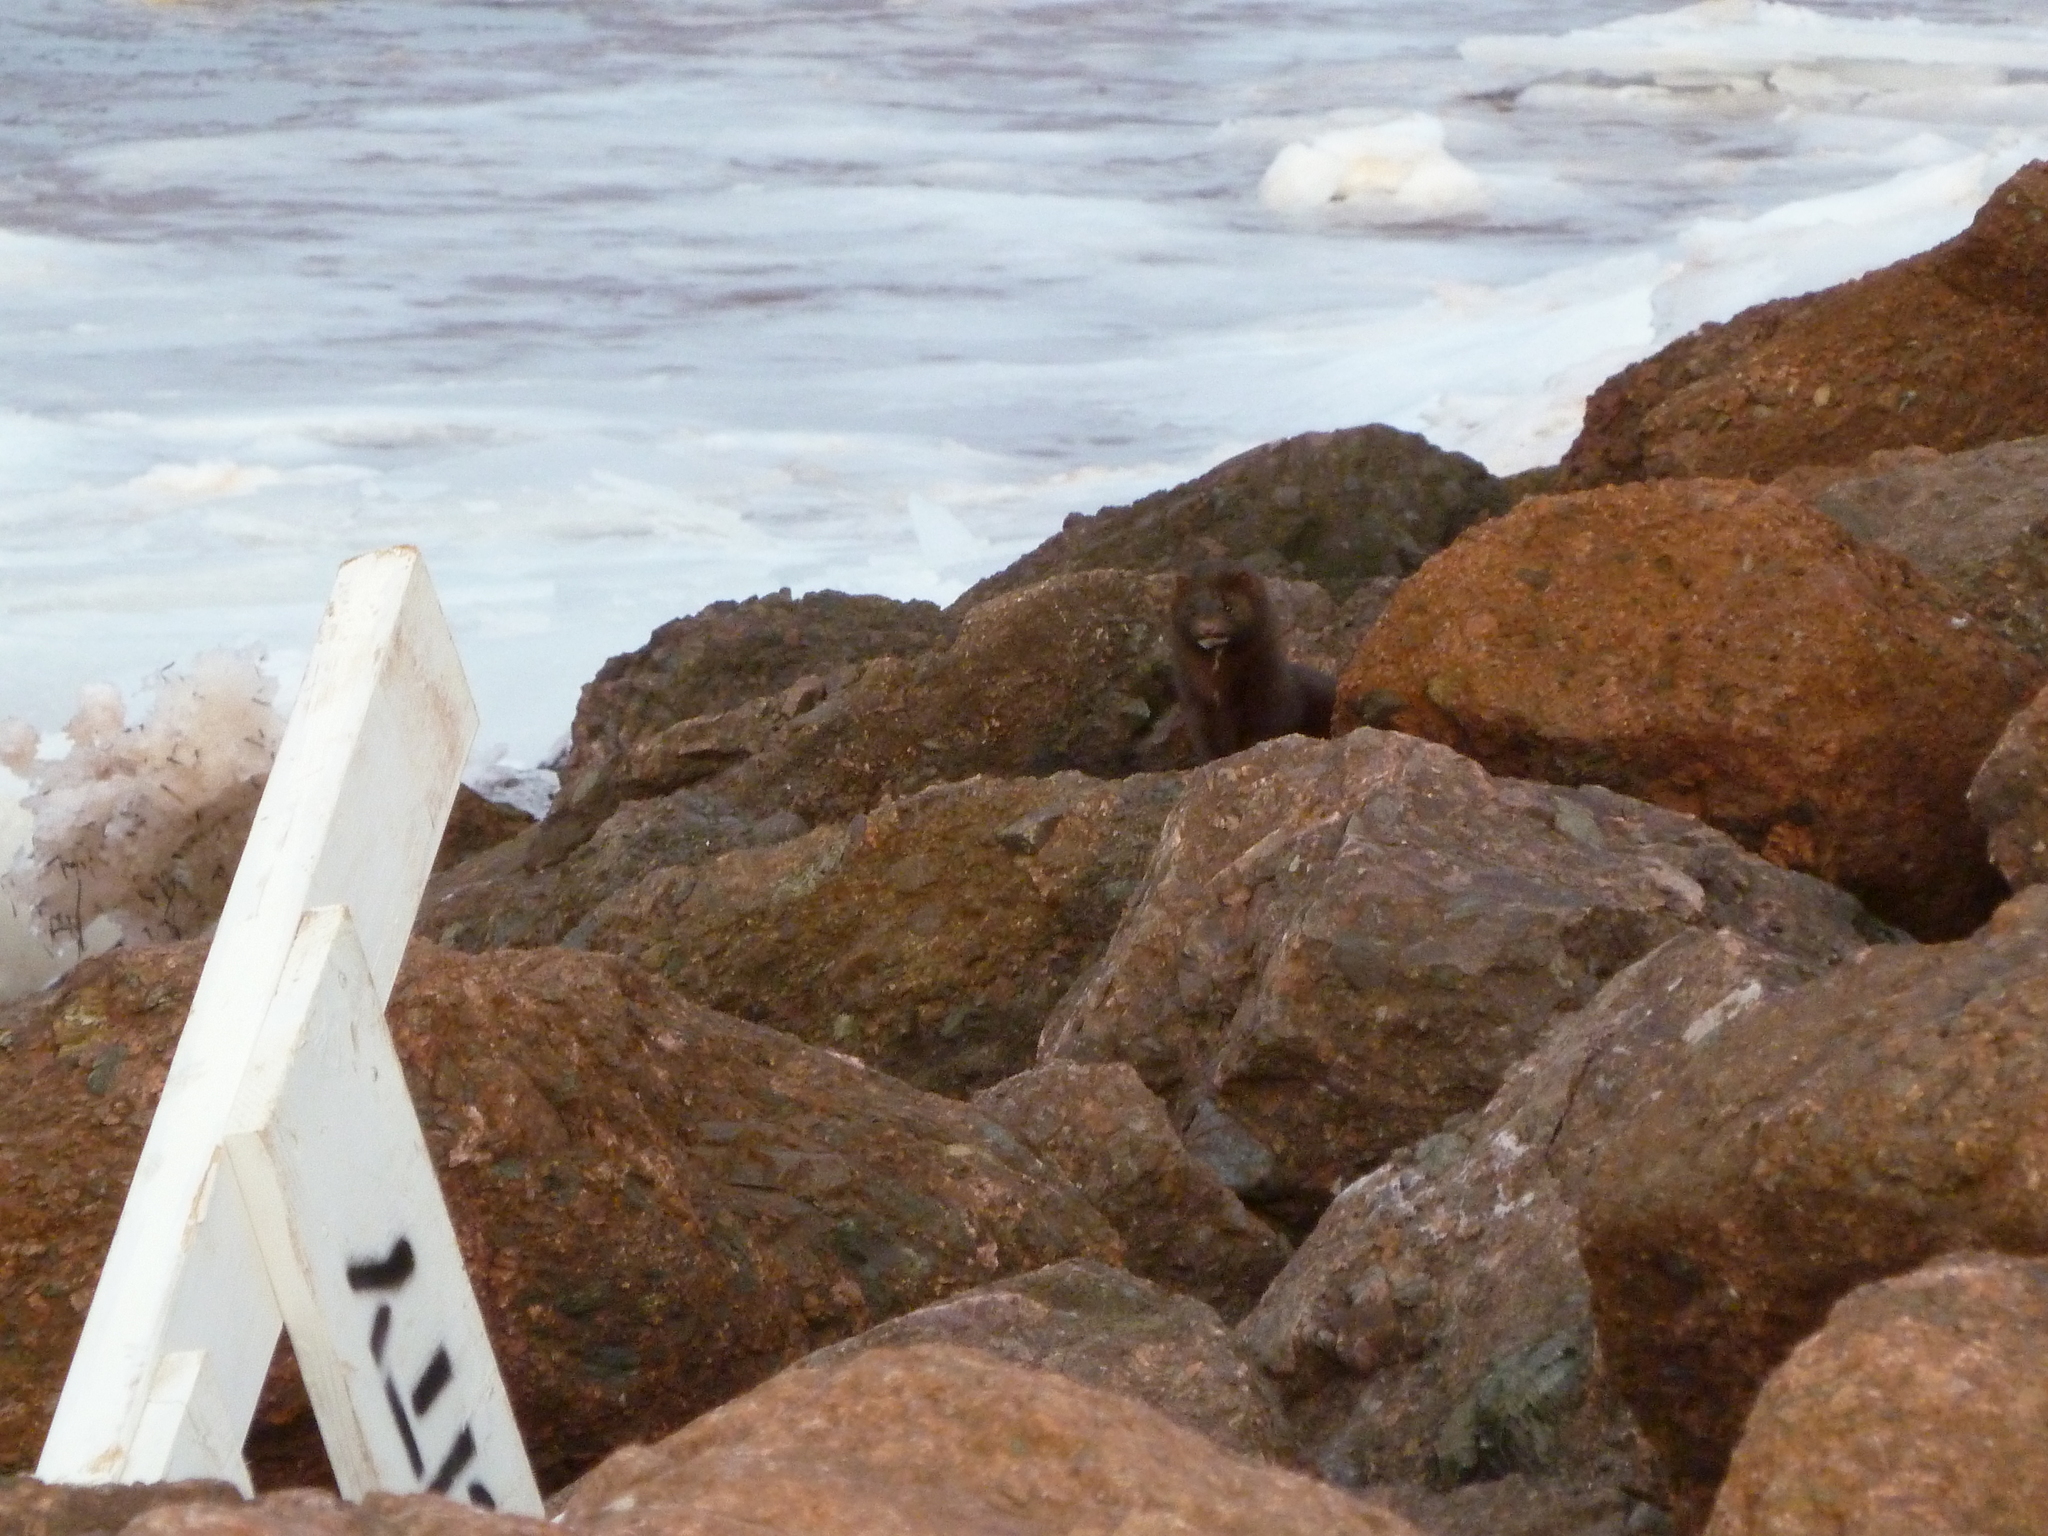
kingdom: Animalia
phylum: Chordata
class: Mammalia
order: Carnivora
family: Mustelidae
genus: Mustela
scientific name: Mustela
